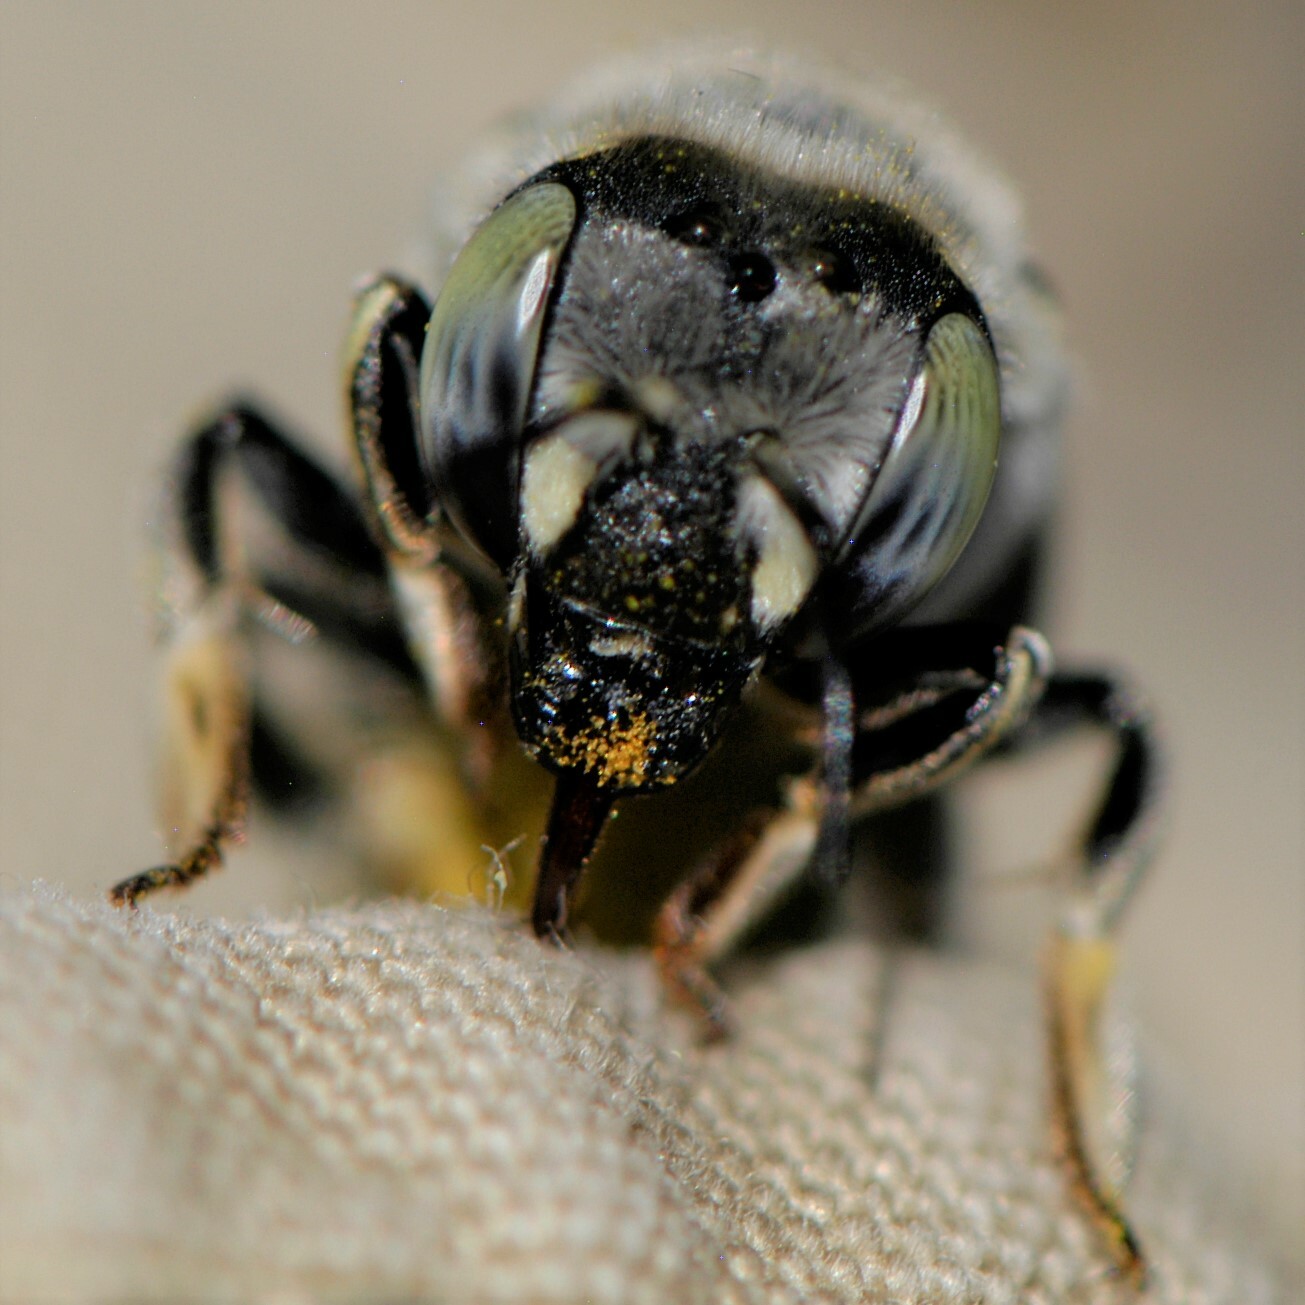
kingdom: Animalia
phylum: Arthropoda
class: Insecta
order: Hymenoptera
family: Megachilidae
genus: Anthidium
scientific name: Anthidium porterae
